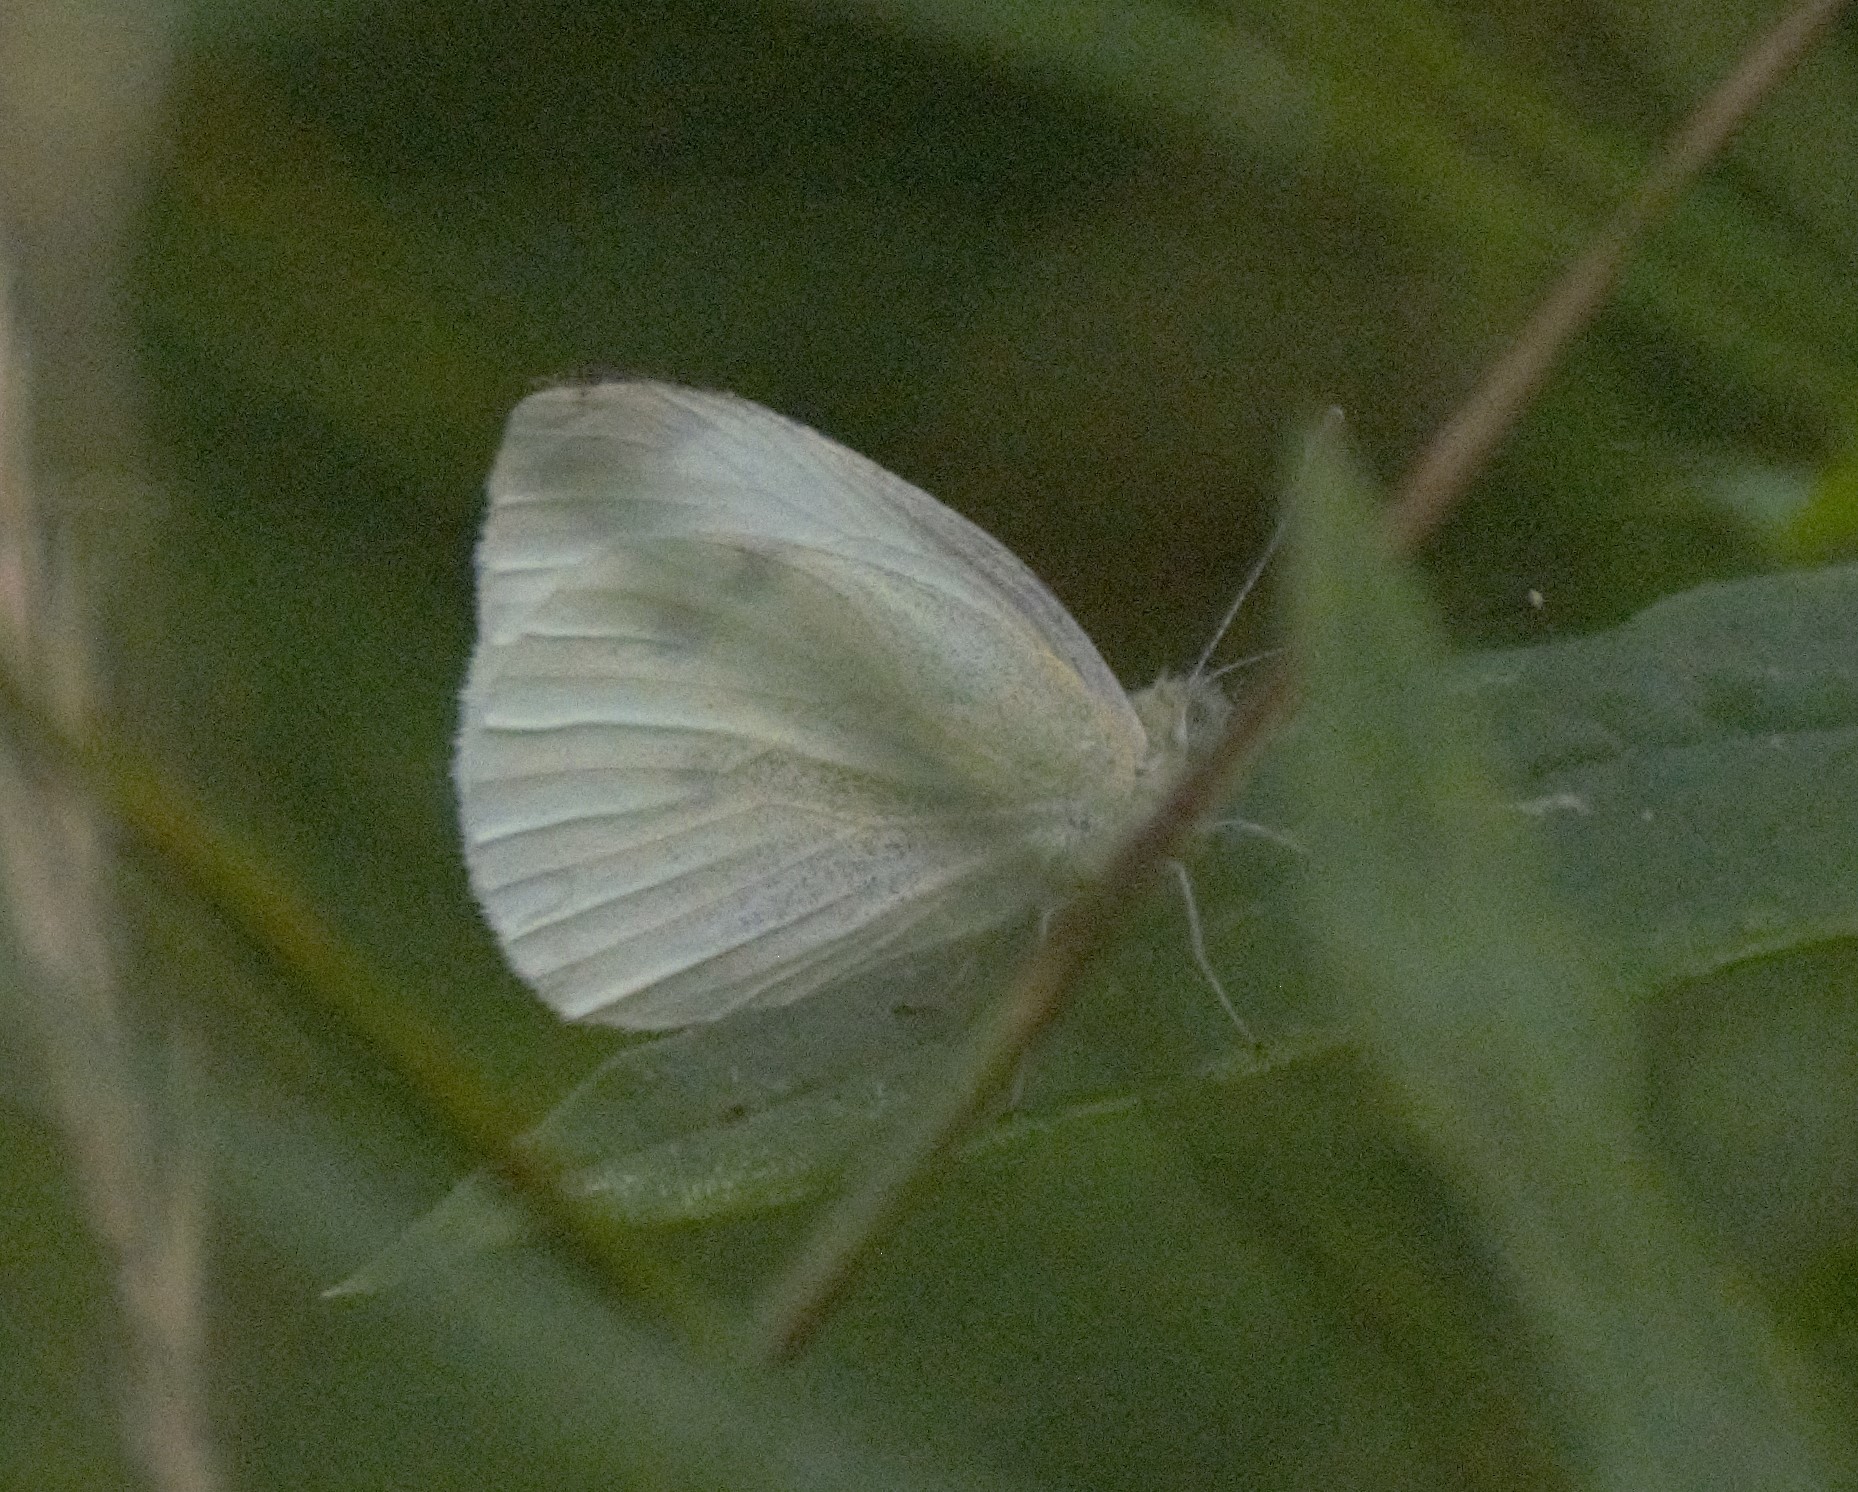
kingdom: Animalia
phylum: Arthropoda
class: Insecta
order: Lepidoptera
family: Pieridae
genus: Pieris
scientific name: Pieris rapae
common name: Small white
